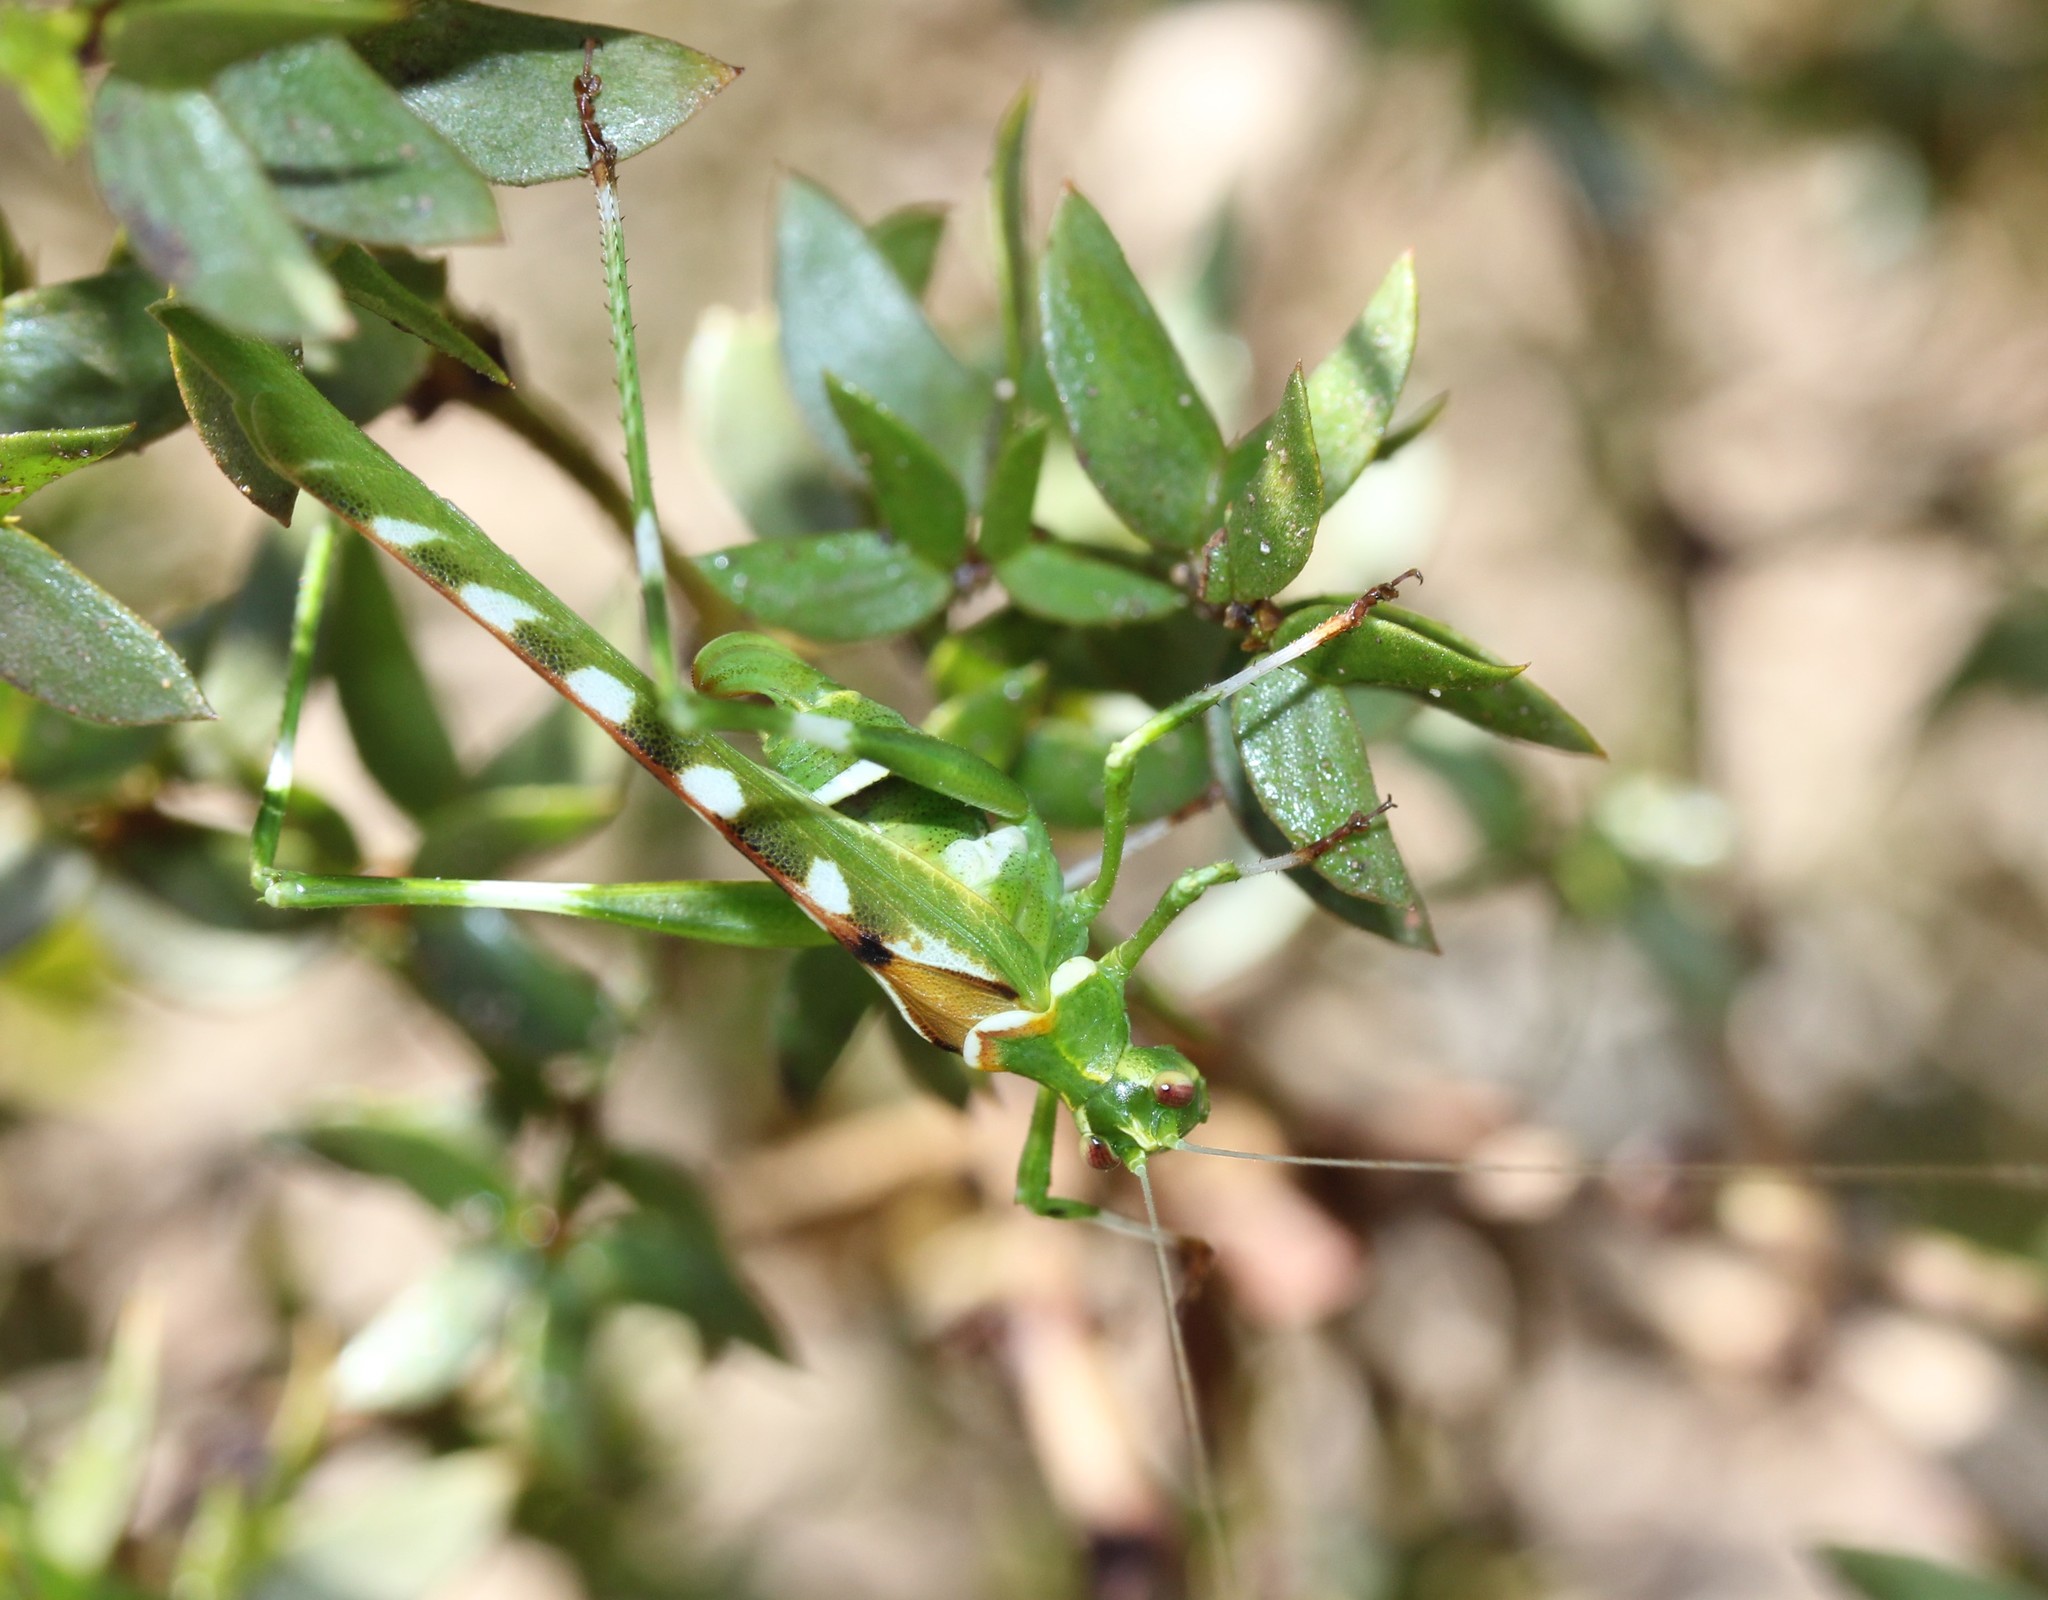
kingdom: Animalia
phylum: Arthropoda
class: Insecta
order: Orthoptera
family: Tettigoniidae
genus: Insara
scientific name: Insara covilleae
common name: Creosote bush katydid
